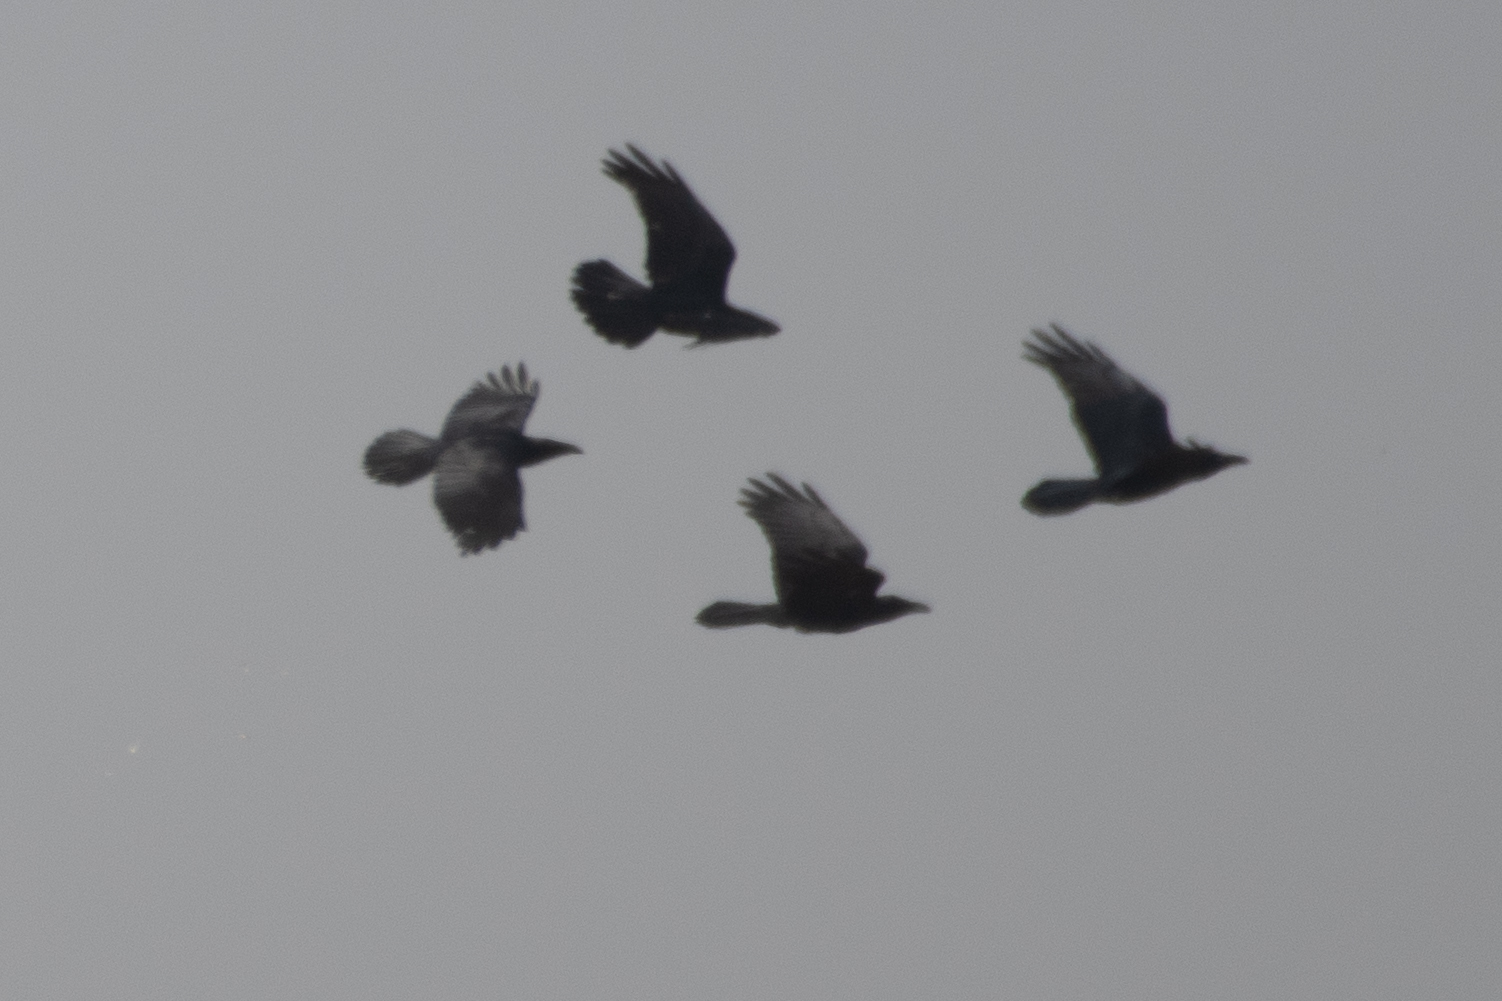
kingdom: Animalia
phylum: Chordata
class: Aves
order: Passeriformes
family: Corvidae
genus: Corvus
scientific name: Corvus corax
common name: Common raven
